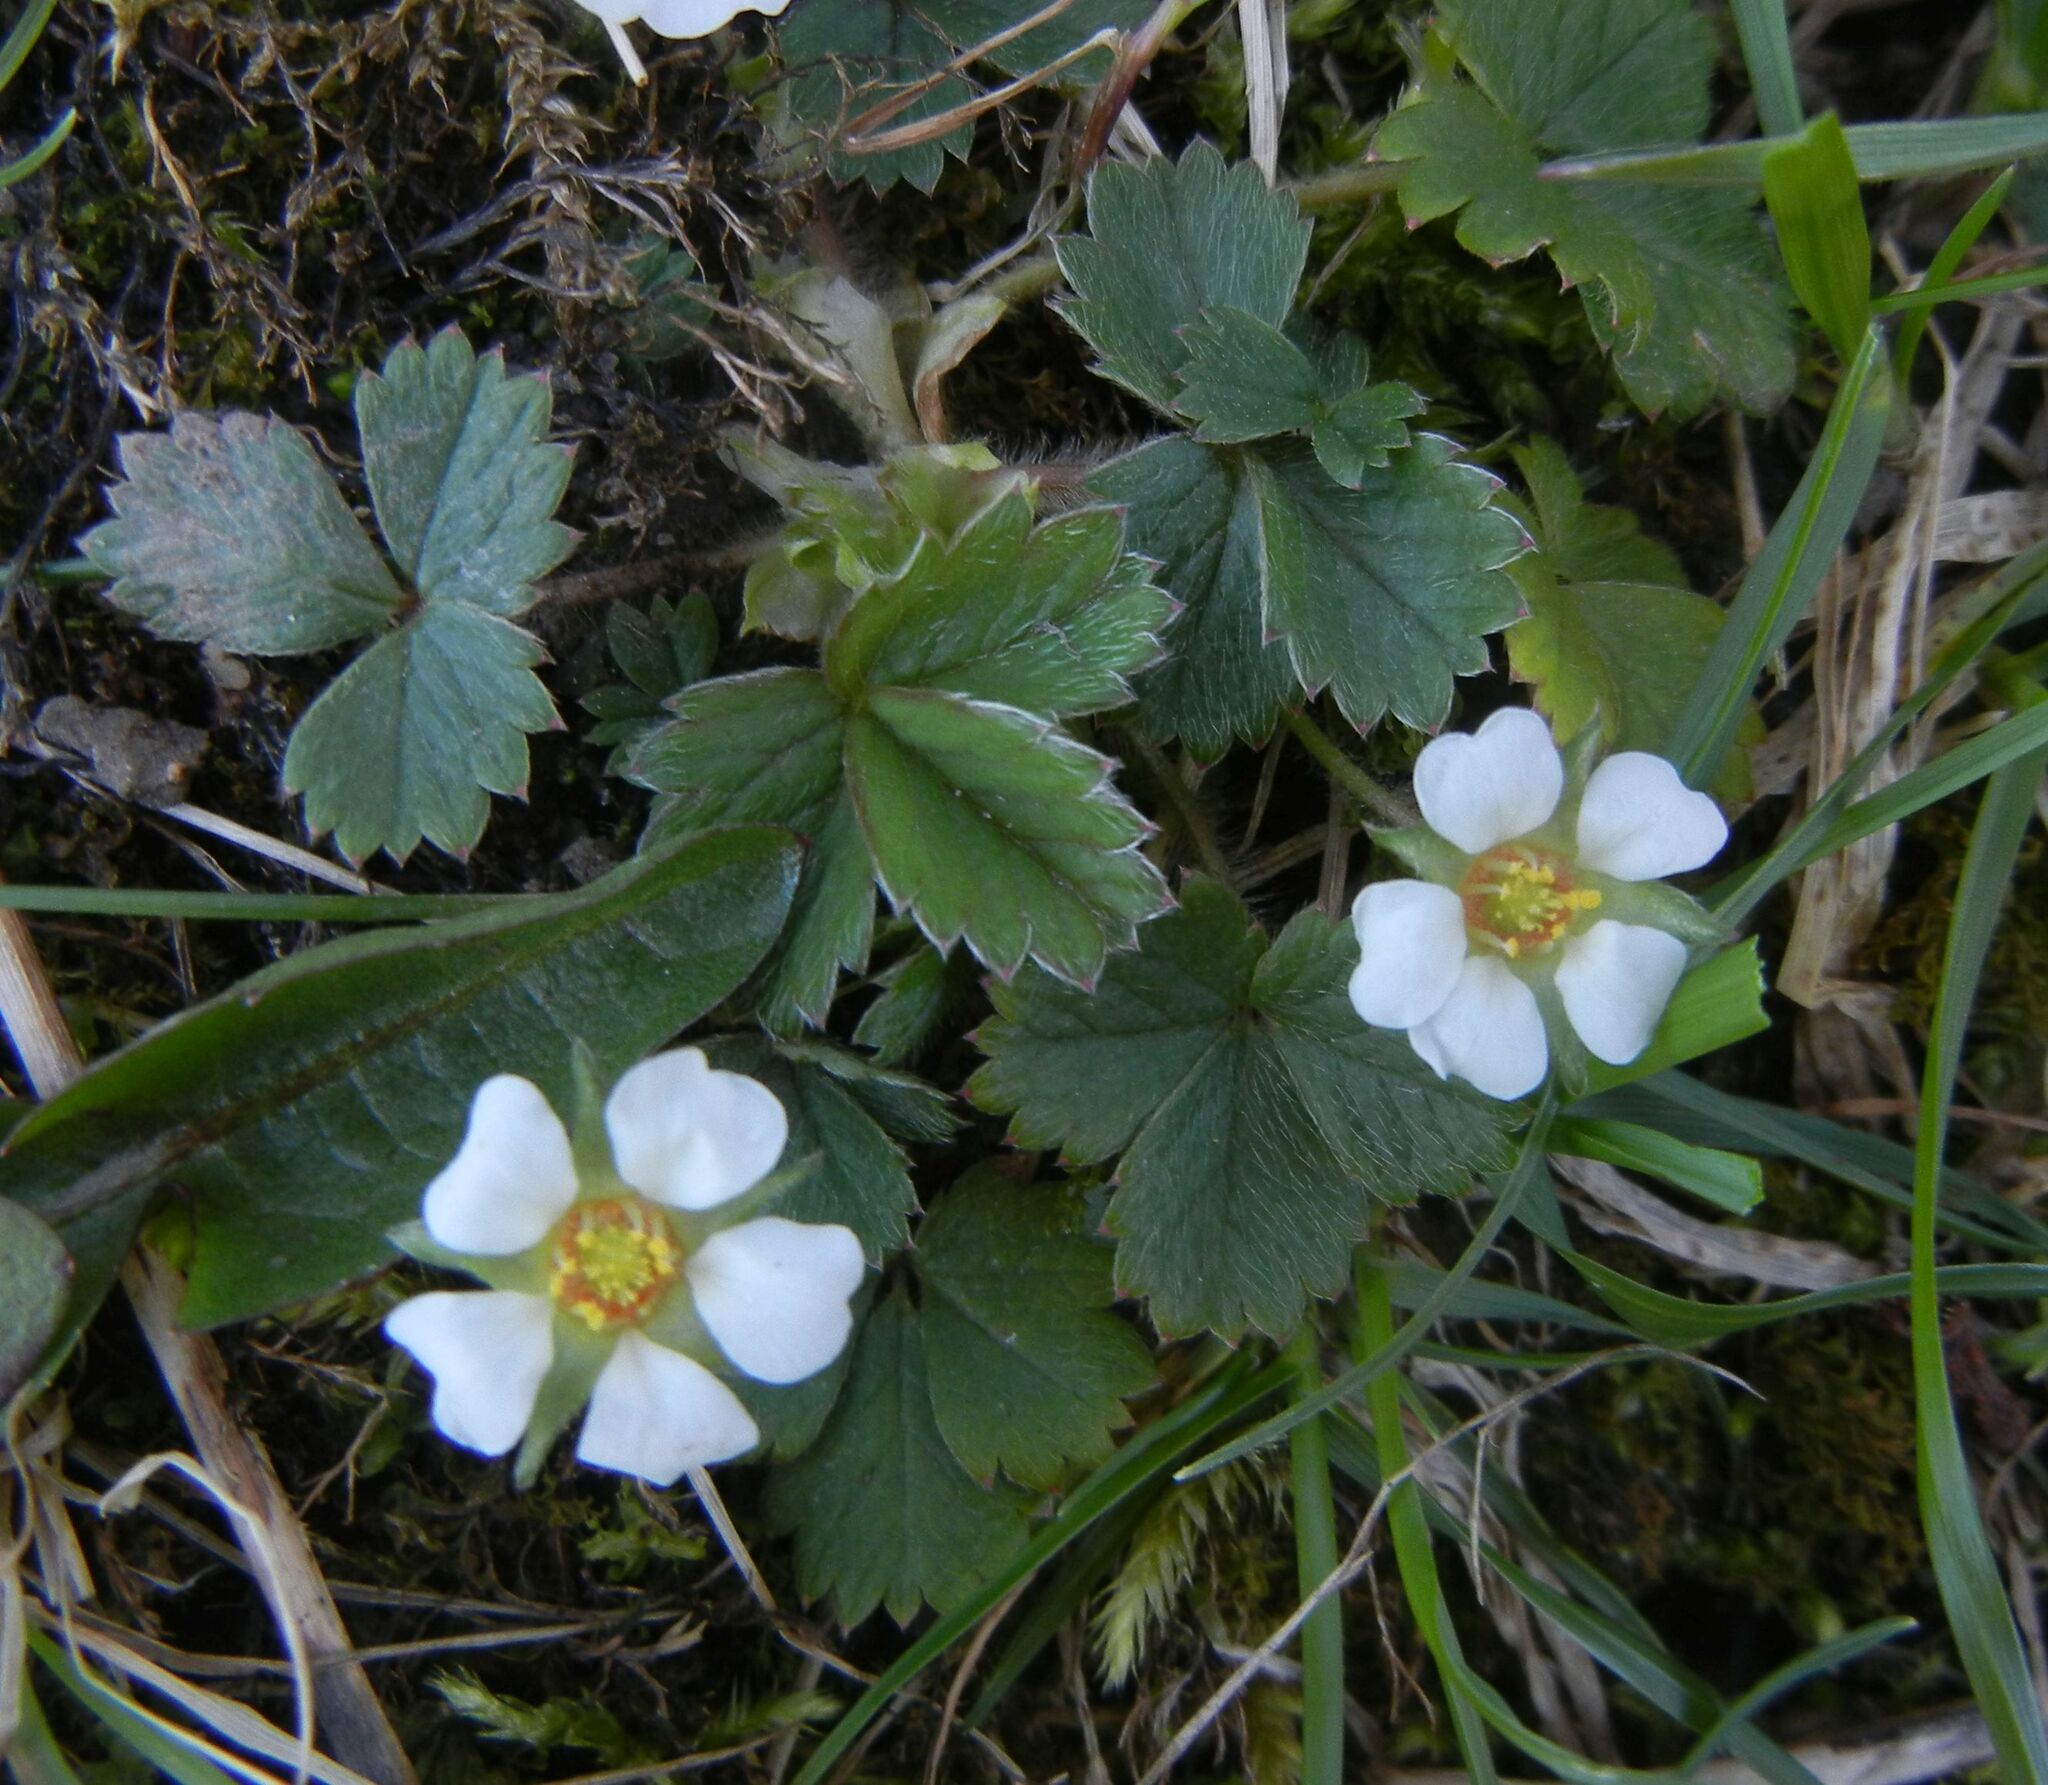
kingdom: Plantae
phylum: Tracheophyta
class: Magnoliopsida
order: Rosales
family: Rosaceae
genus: Potentilla
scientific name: Potentilla sterilis
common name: Barren strawberry
